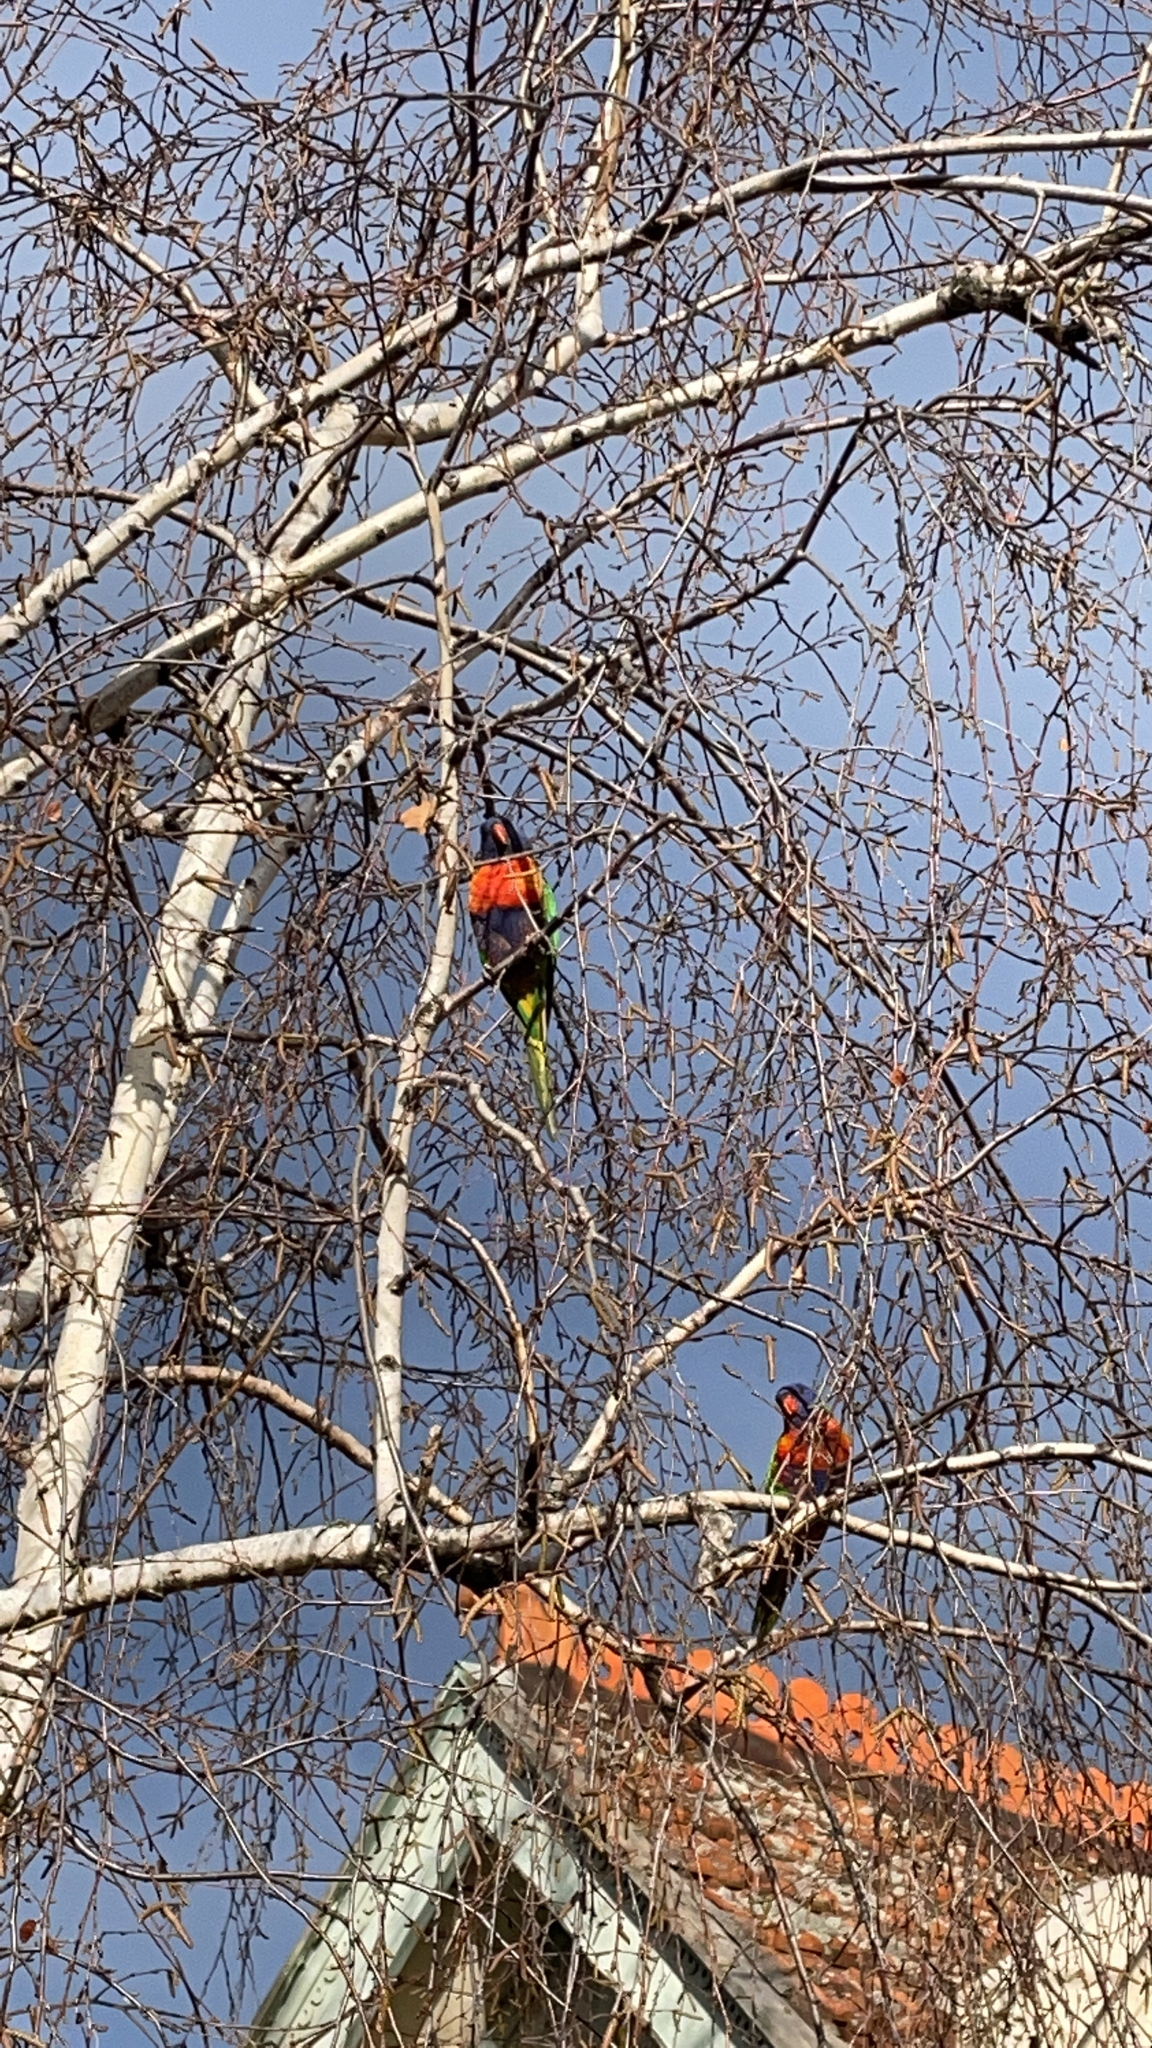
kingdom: Animalia
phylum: Chordata
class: Aves
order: Psittaciformes
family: Psittacidae
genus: Trichoglossus
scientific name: Trichoglossus haematodus
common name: Coconut lorikeet
